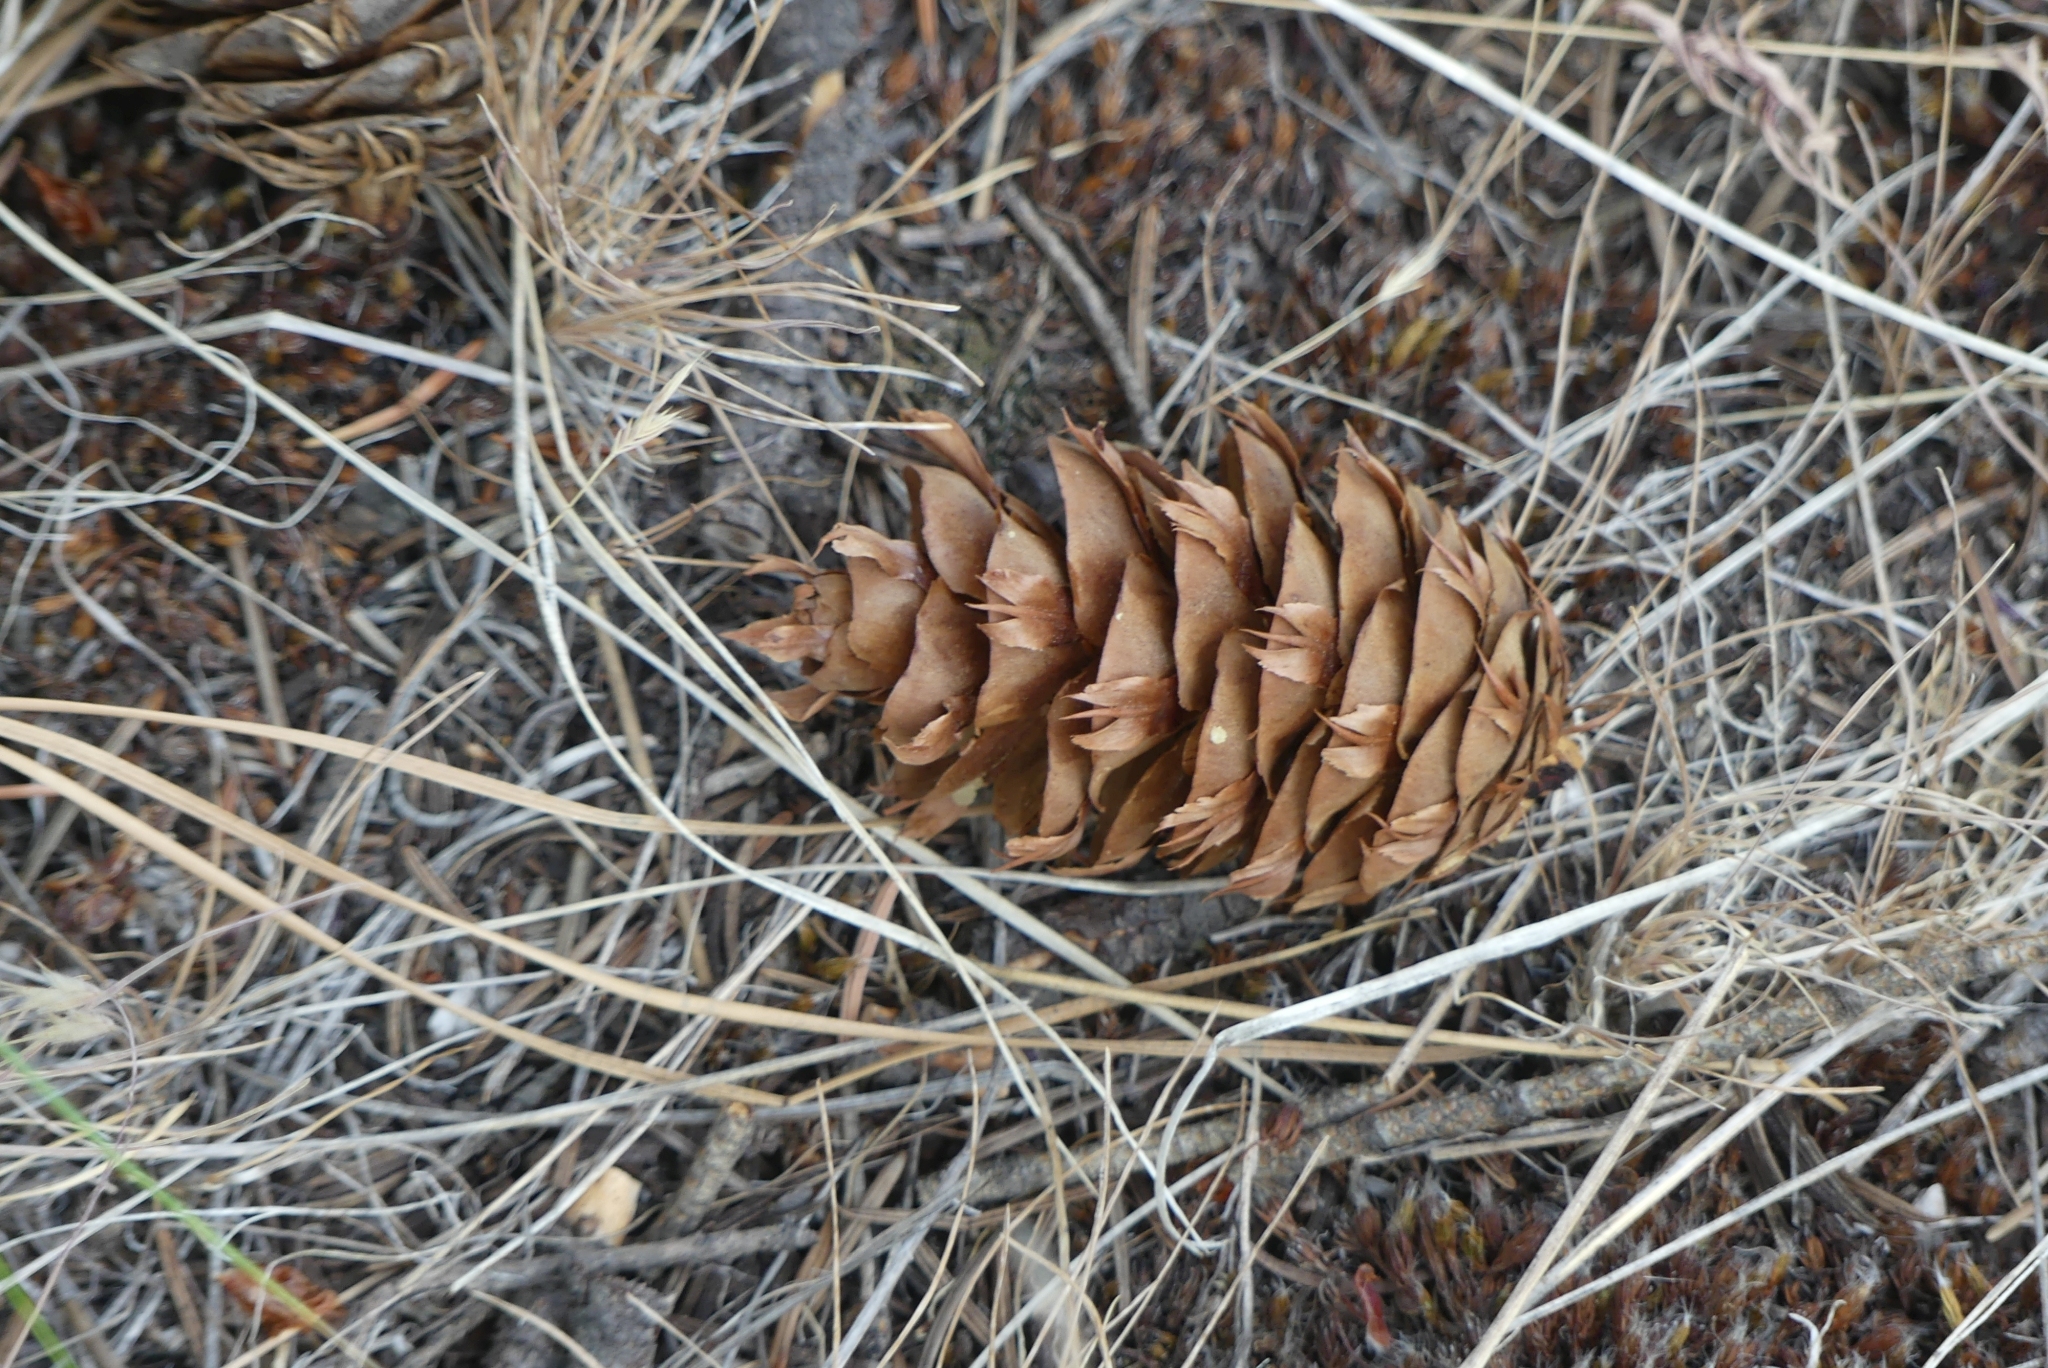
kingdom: Plantae
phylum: Tracheophyta
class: Pinopsida
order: Pinales
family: Pinaceae
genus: Pseudotsuga
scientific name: Pseudotsuga menziesii
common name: Douglas fir
